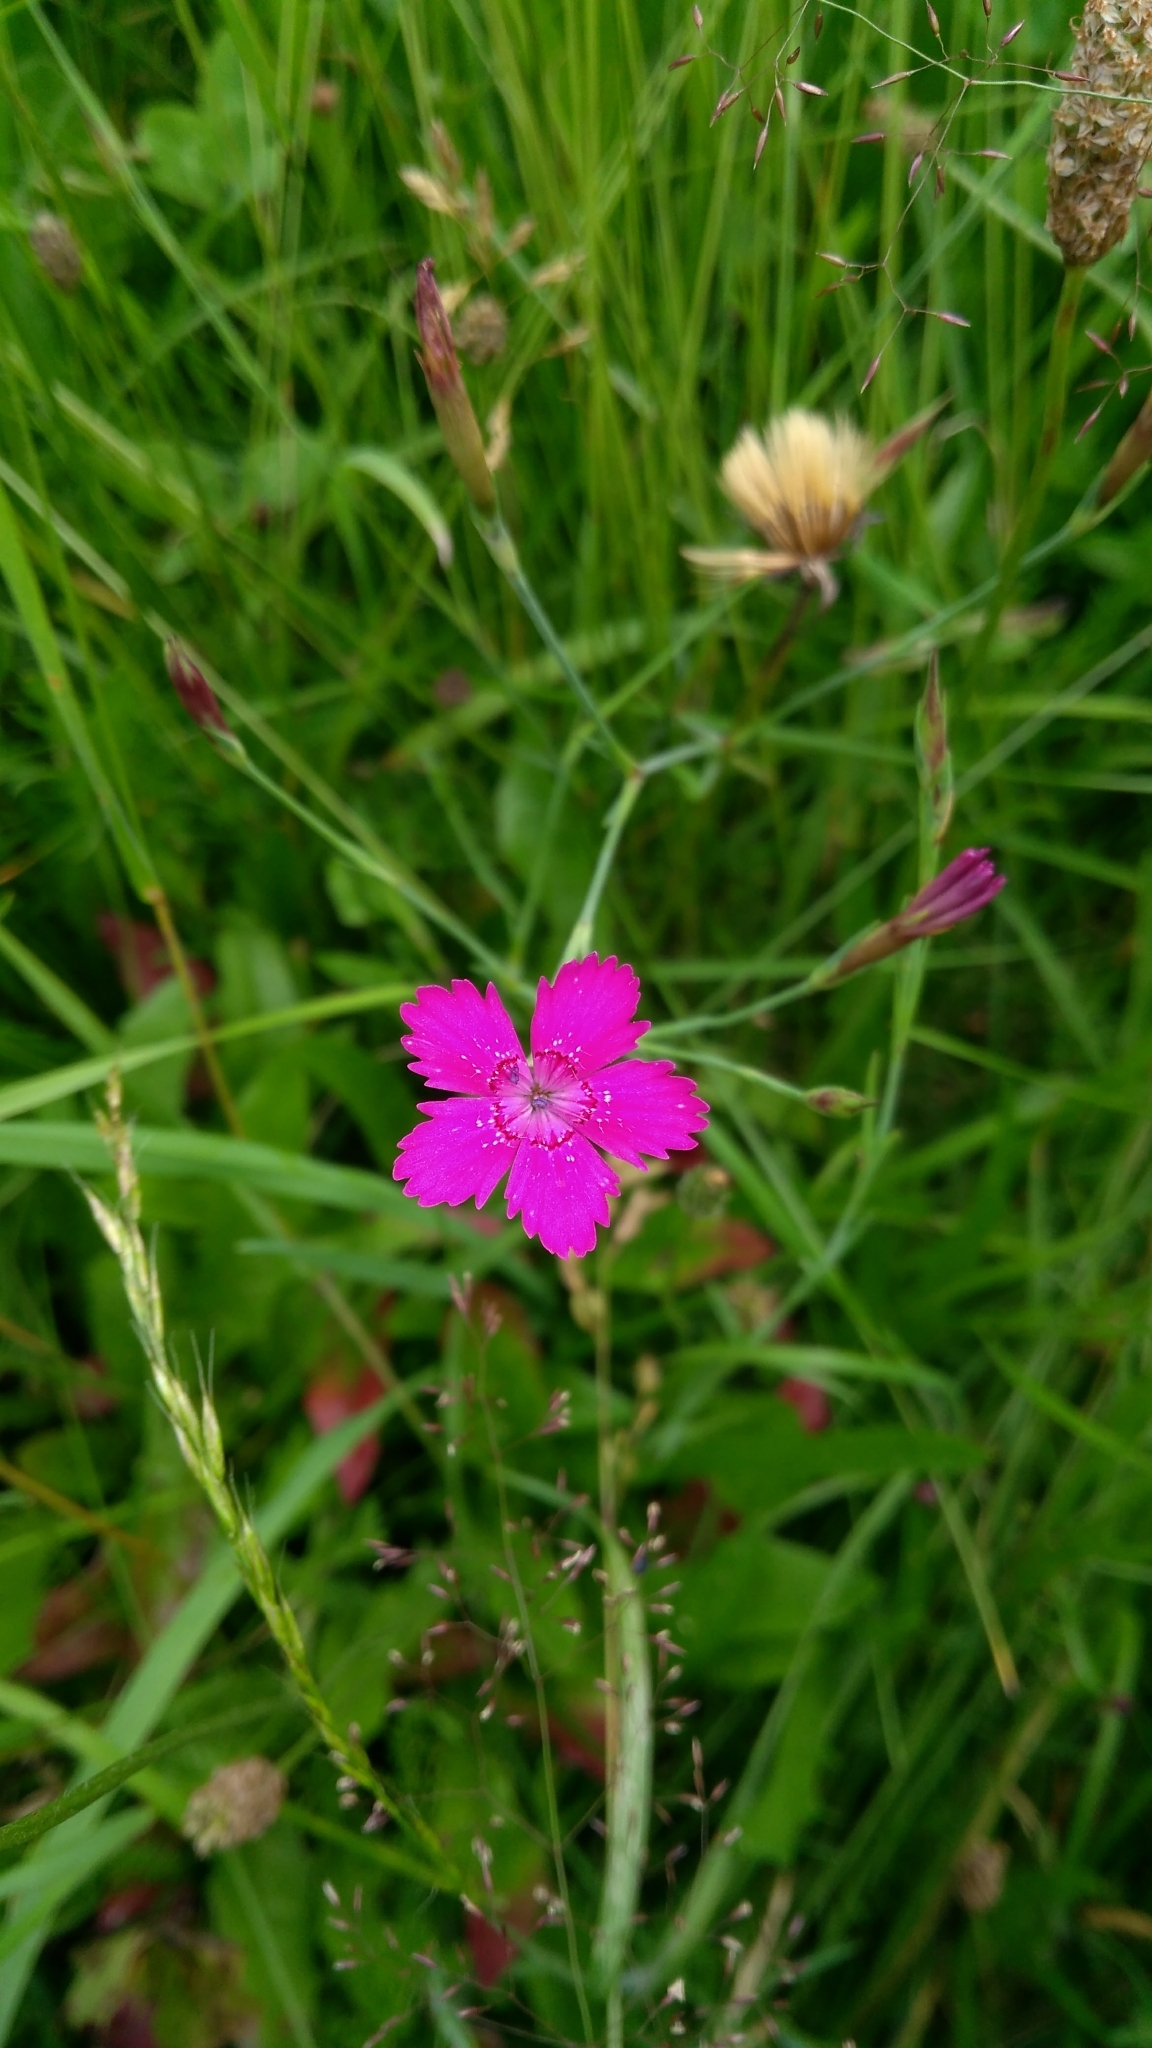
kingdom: Plantae
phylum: Tracheophyta
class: Magnoliopsida
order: Caryophyllales
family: Caryophyllaceae
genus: Dianthus
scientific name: Dianthus deltoides
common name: Maiden pink
